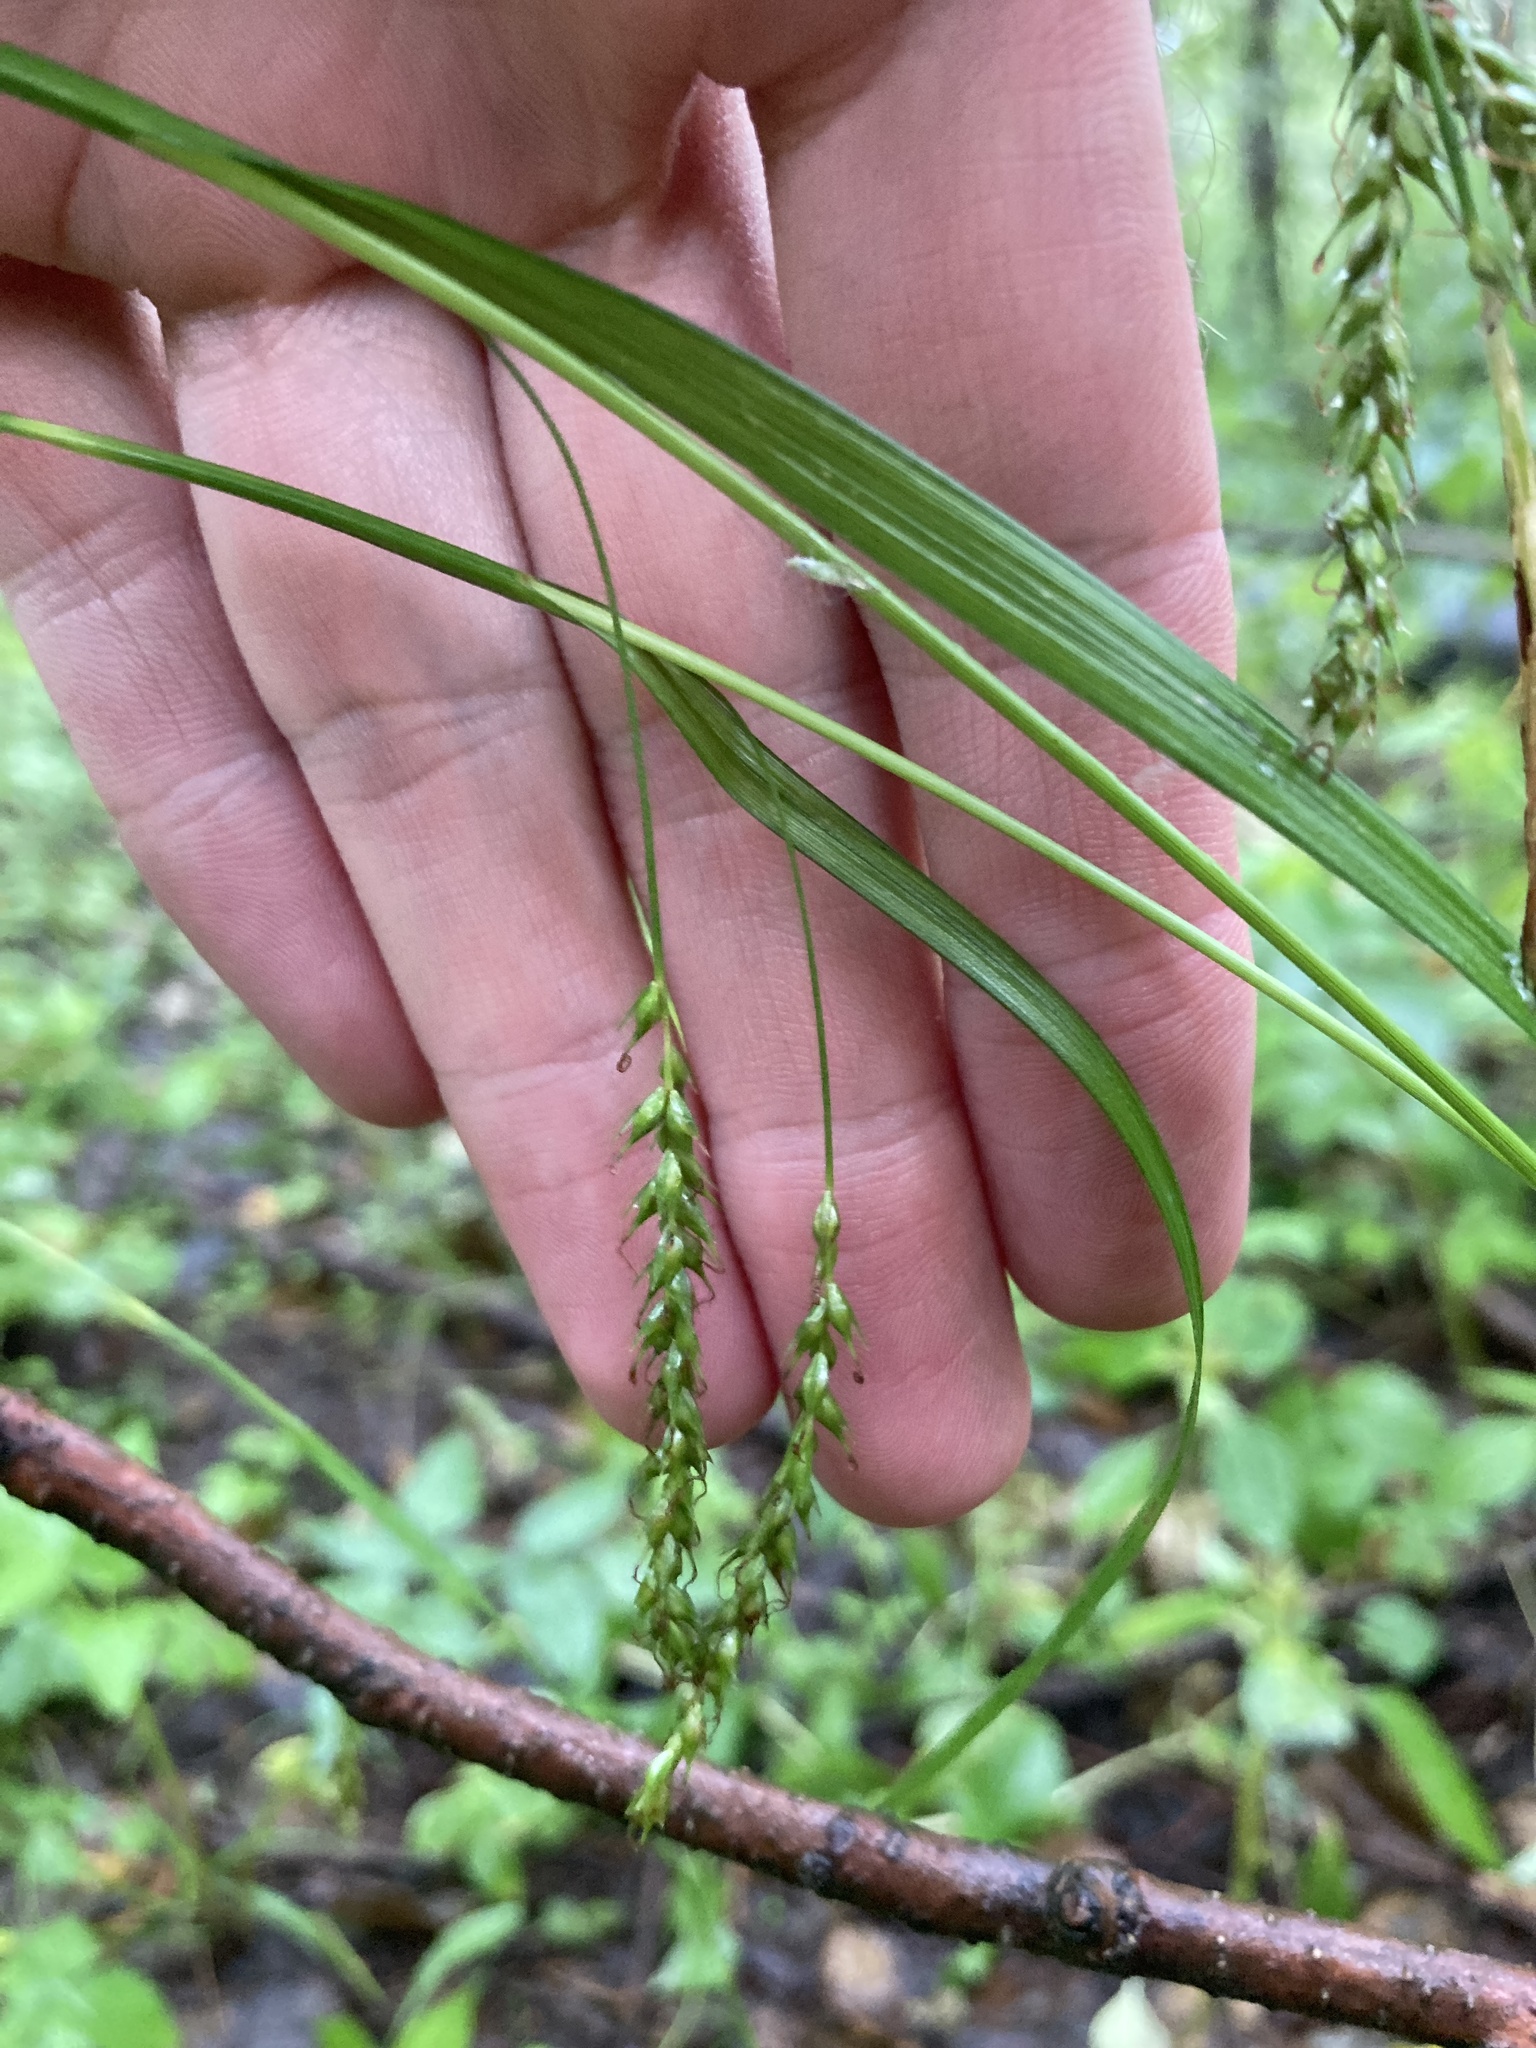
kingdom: Plantae
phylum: Tracheophyta
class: Liliopsida
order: Poales
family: Cyperaceae
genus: Carex
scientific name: Carex sylvatica
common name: Wood-sedge
